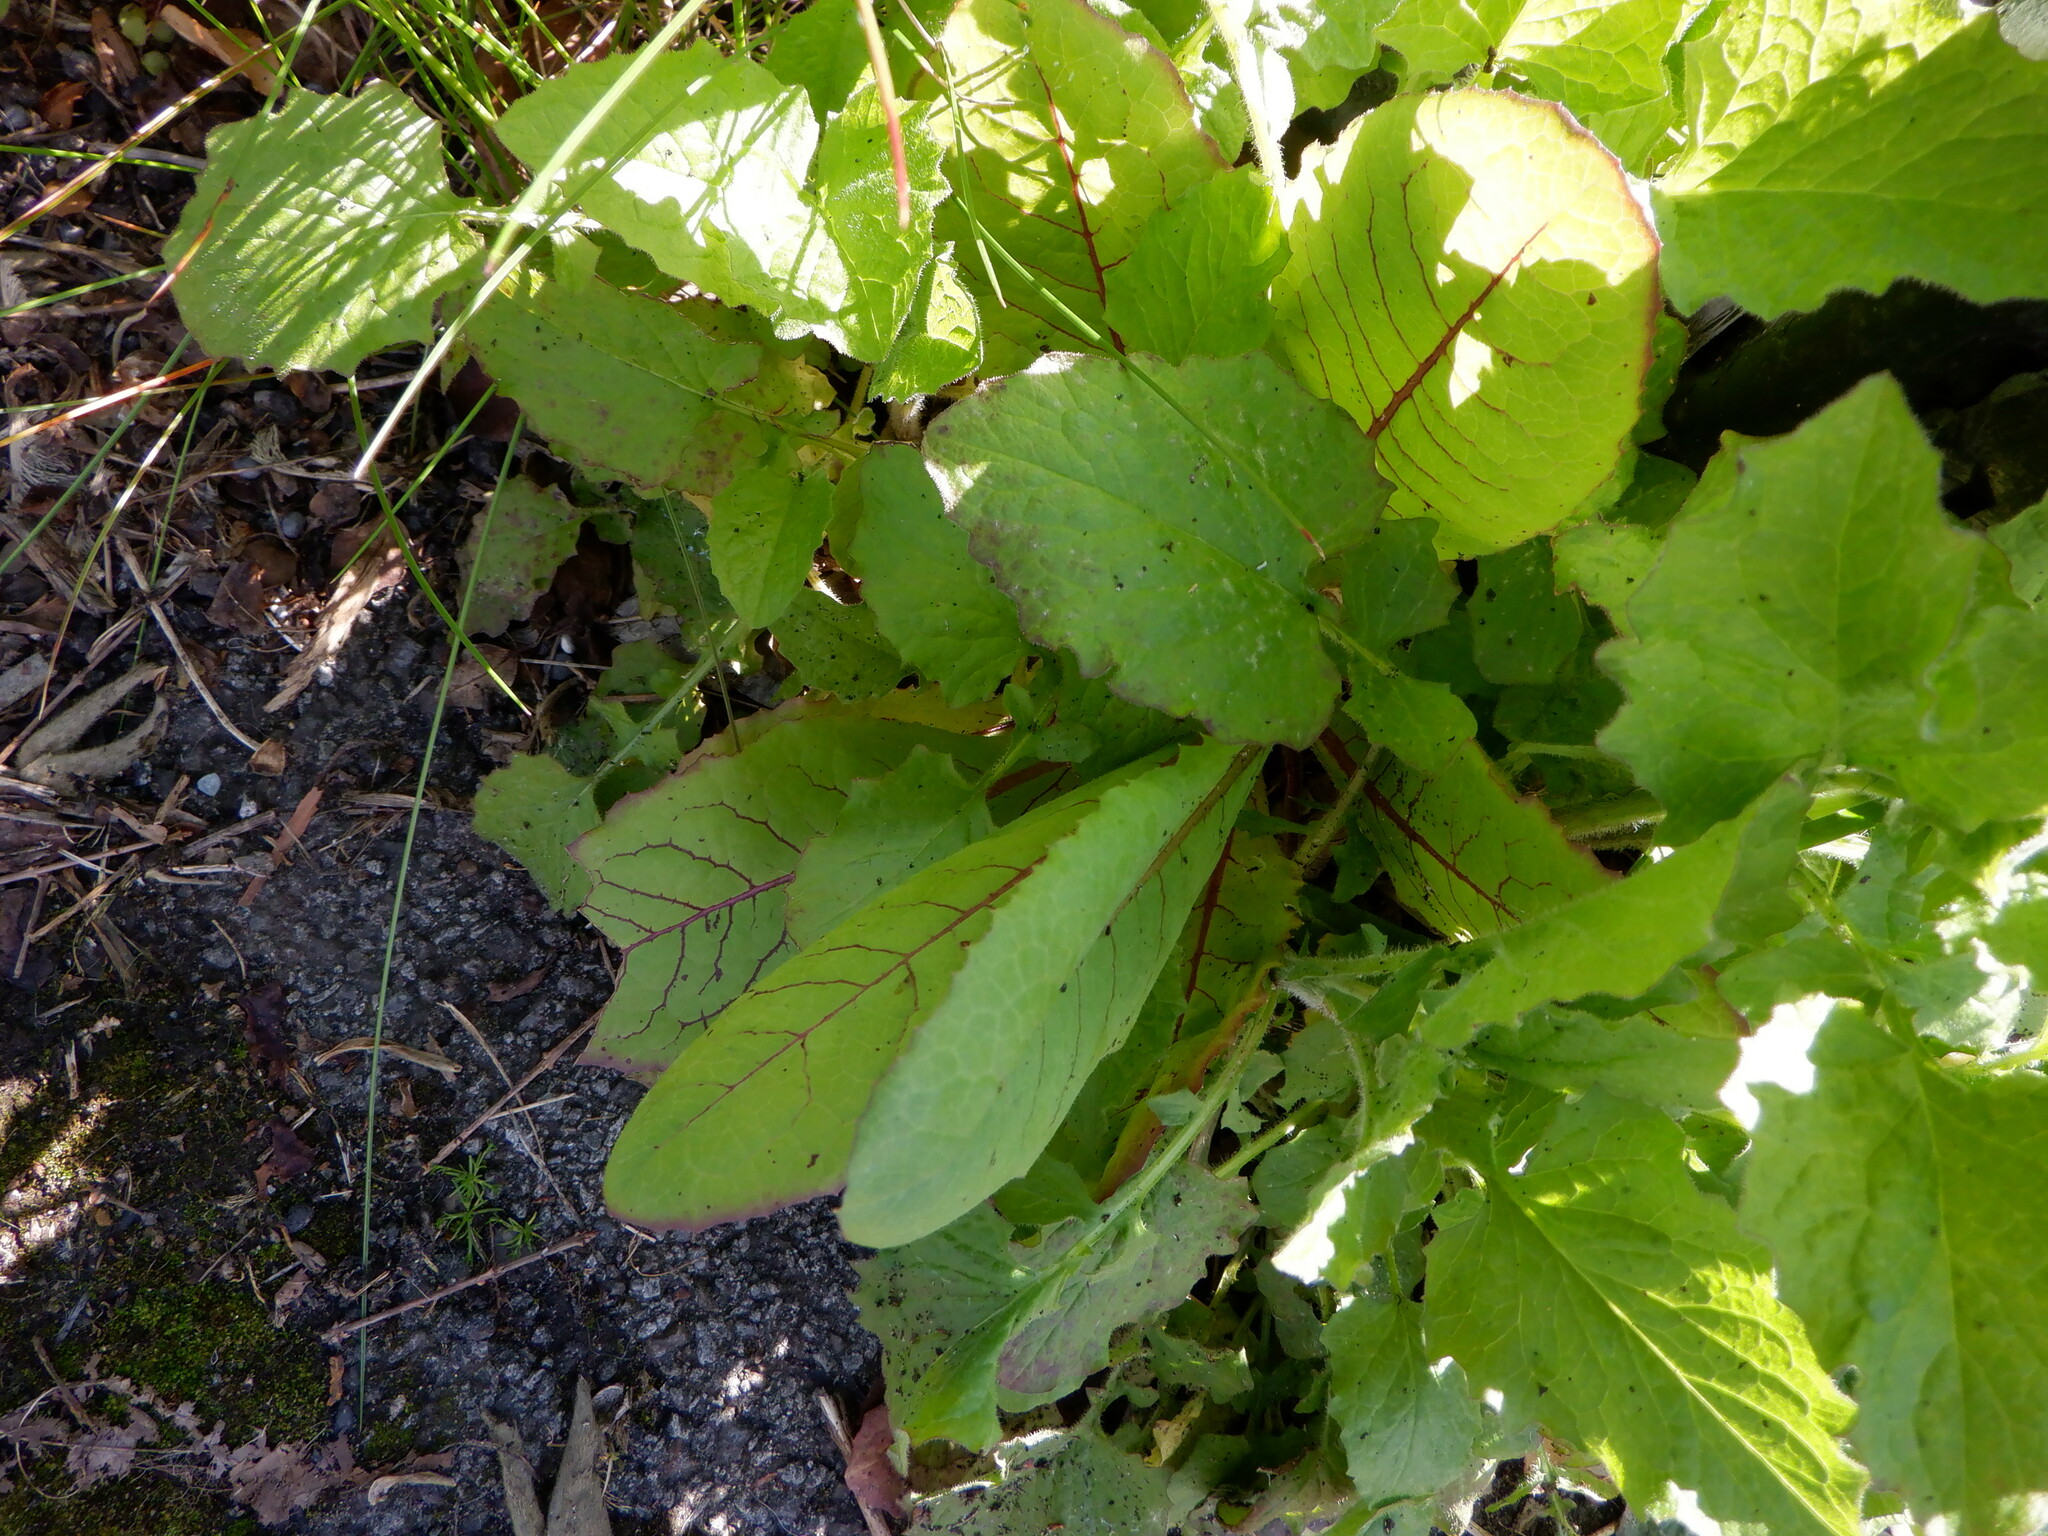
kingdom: Plantae
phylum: Tracheophyta
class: Magnoliopsida
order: Caryophyllales
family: Polygonaceae
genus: Rumex
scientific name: Rumex sanguineus
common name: Wood dock
